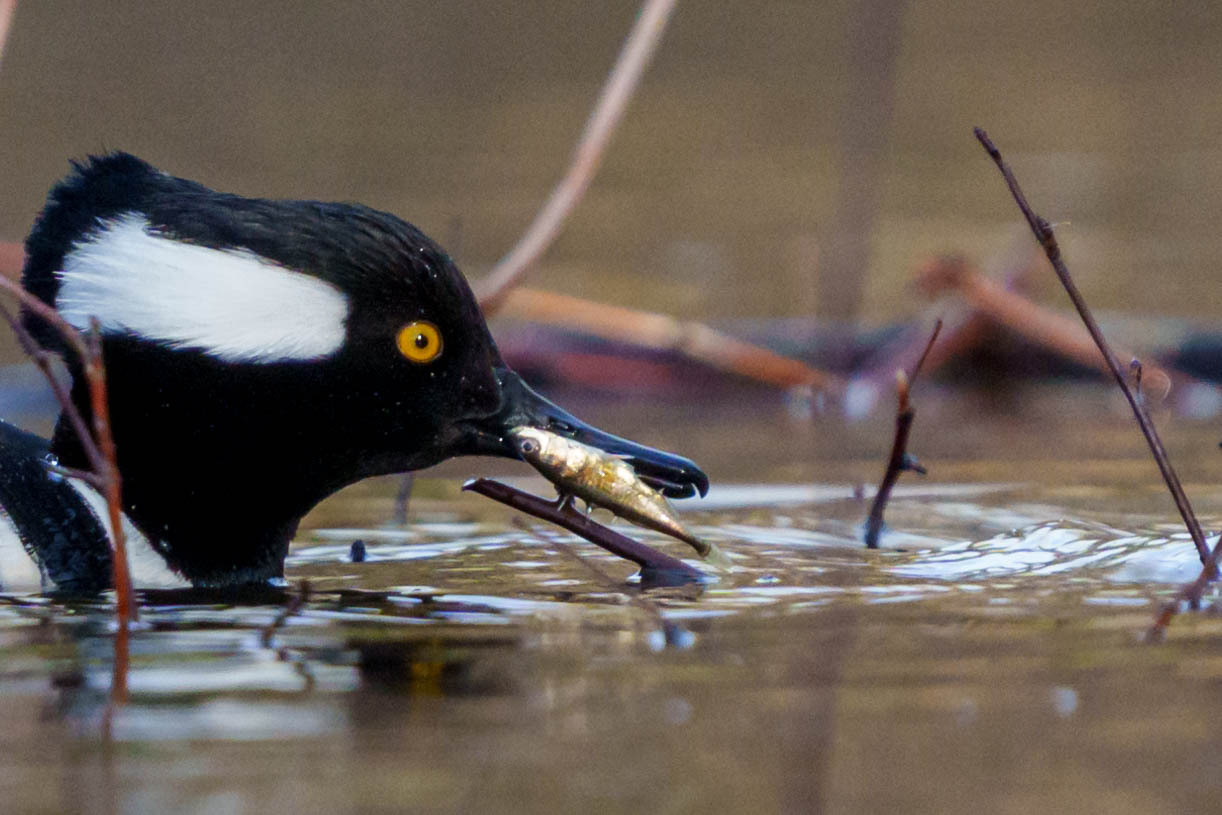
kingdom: Animalia
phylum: Chordata
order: Gasterosteiformes
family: Gasterosteidae
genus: Gasterosteus
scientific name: Gasterosteus aculeatus
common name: Three-spined stickleback
